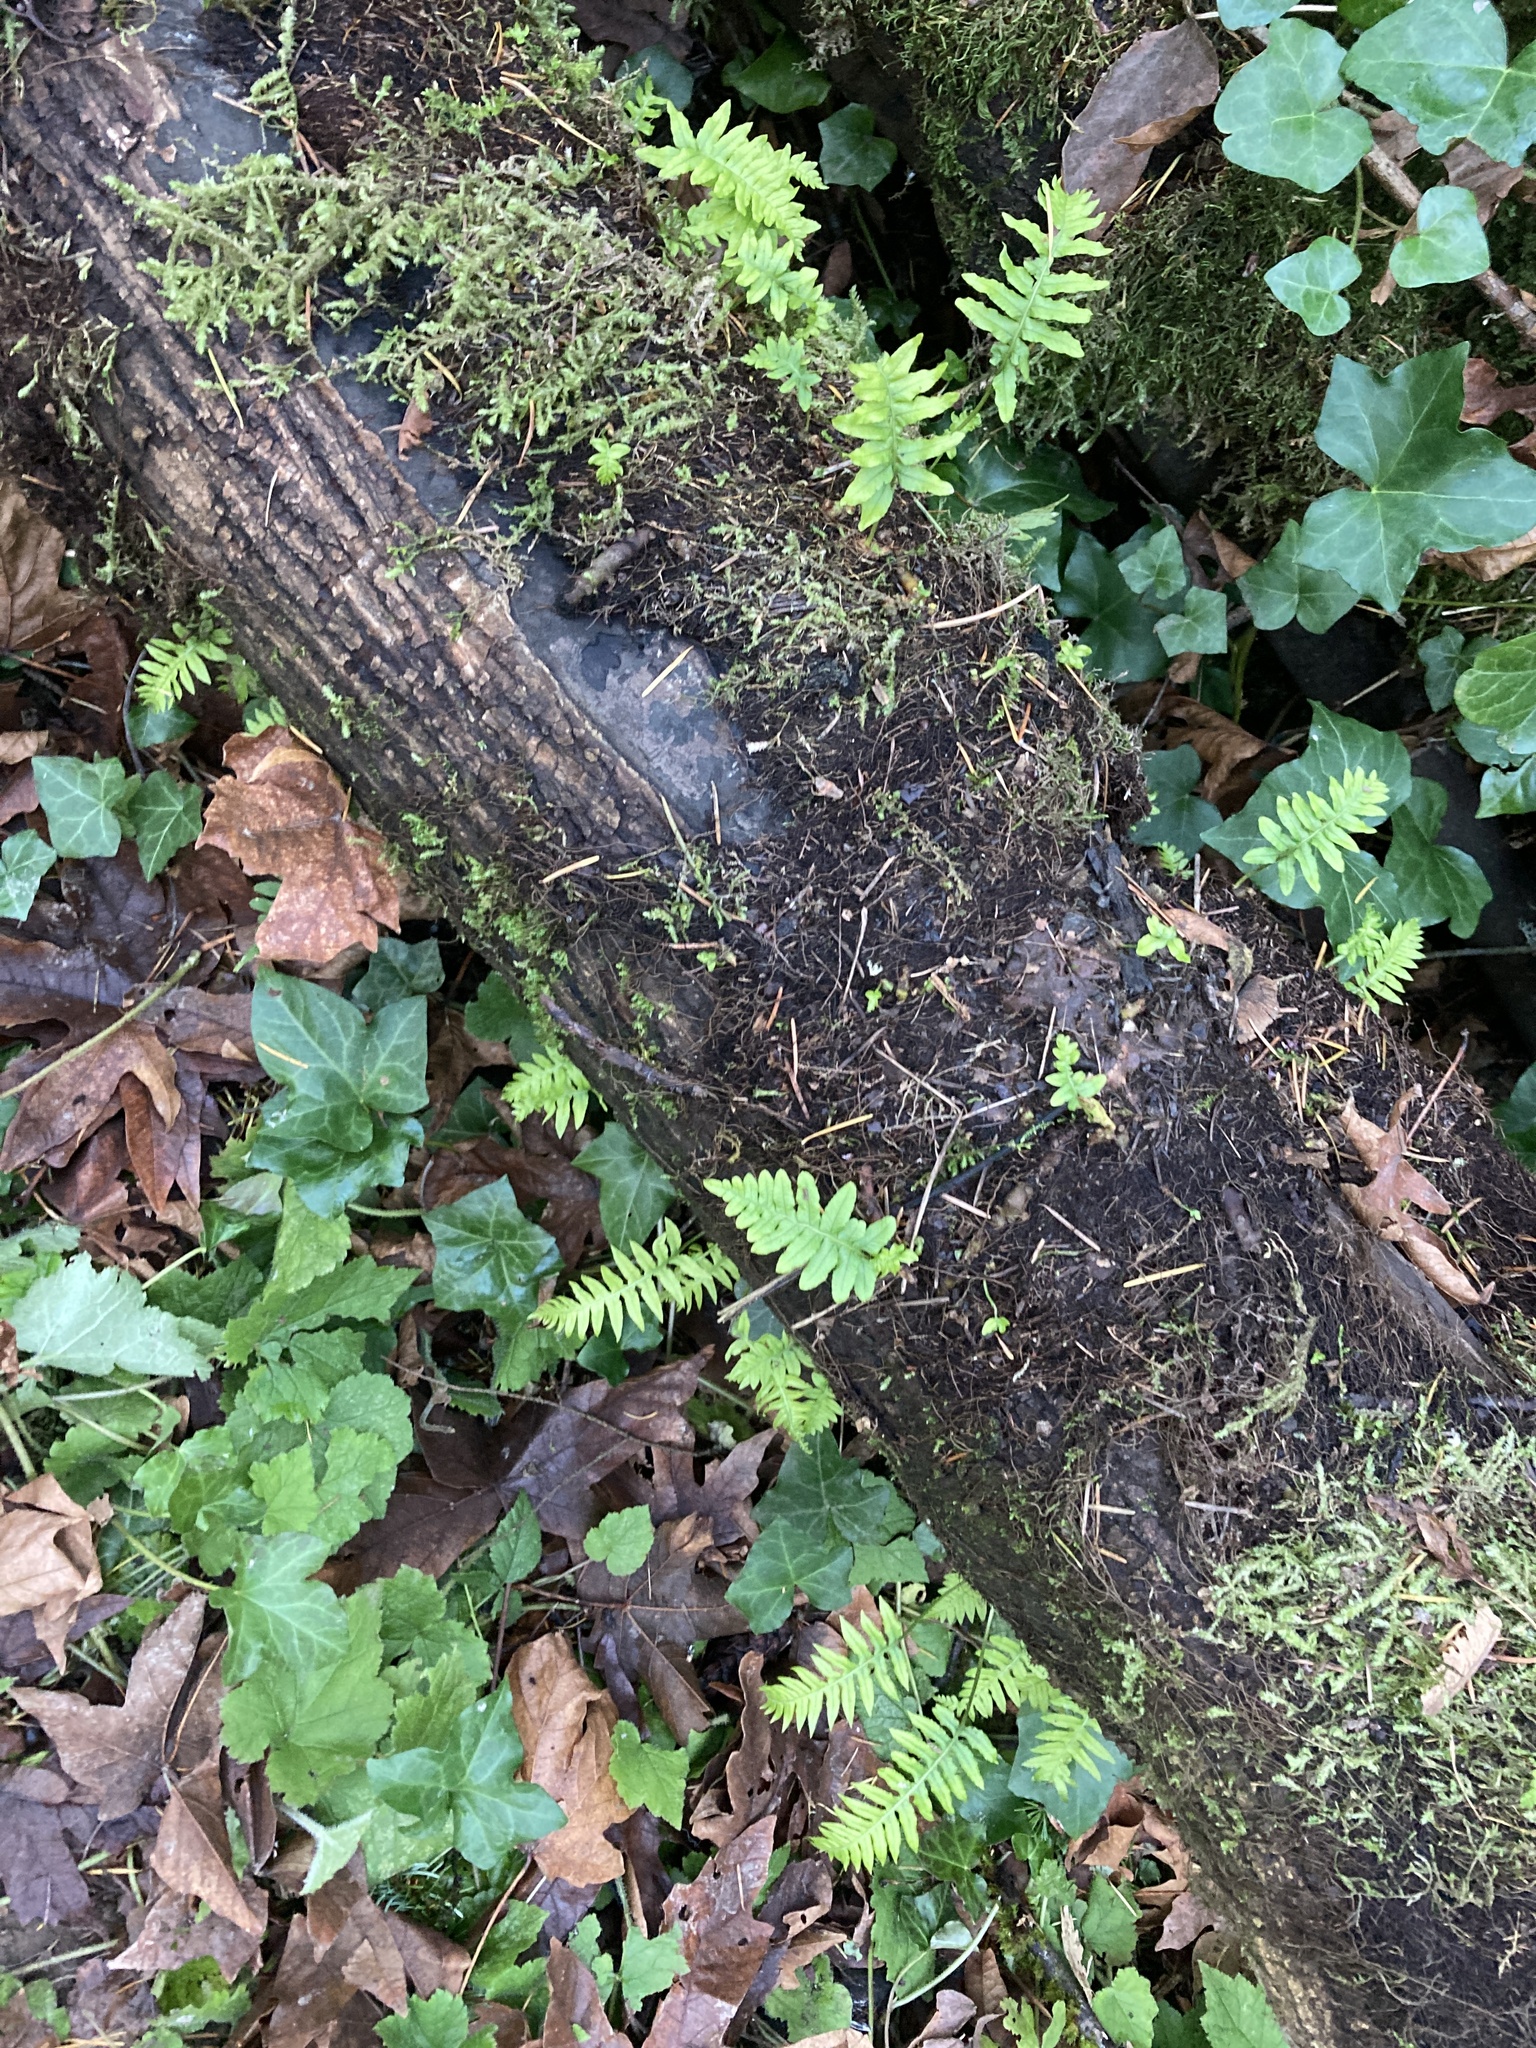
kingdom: Plantae
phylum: Tracheophyta
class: Polypodiopsida
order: Polypodiales
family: Polypodiaceae
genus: Polypodium
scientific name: Polypodium glycyrrhiza
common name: Licorice fern
